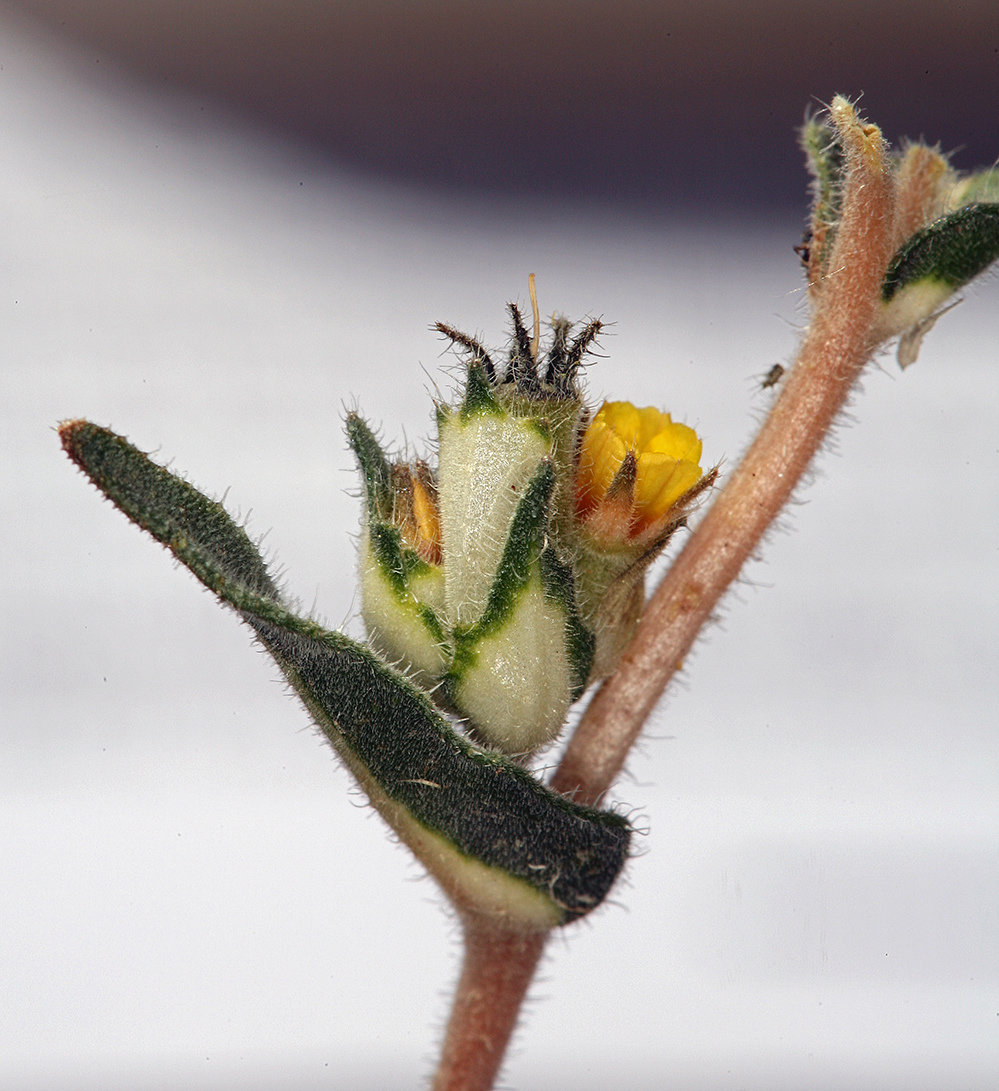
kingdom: Plantae
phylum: Tracheophyta
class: Magnoliopsida
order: Cornales
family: Loasaceae
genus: Mentzelia
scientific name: Mentzelia congesta
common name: Ventana blazingstar
